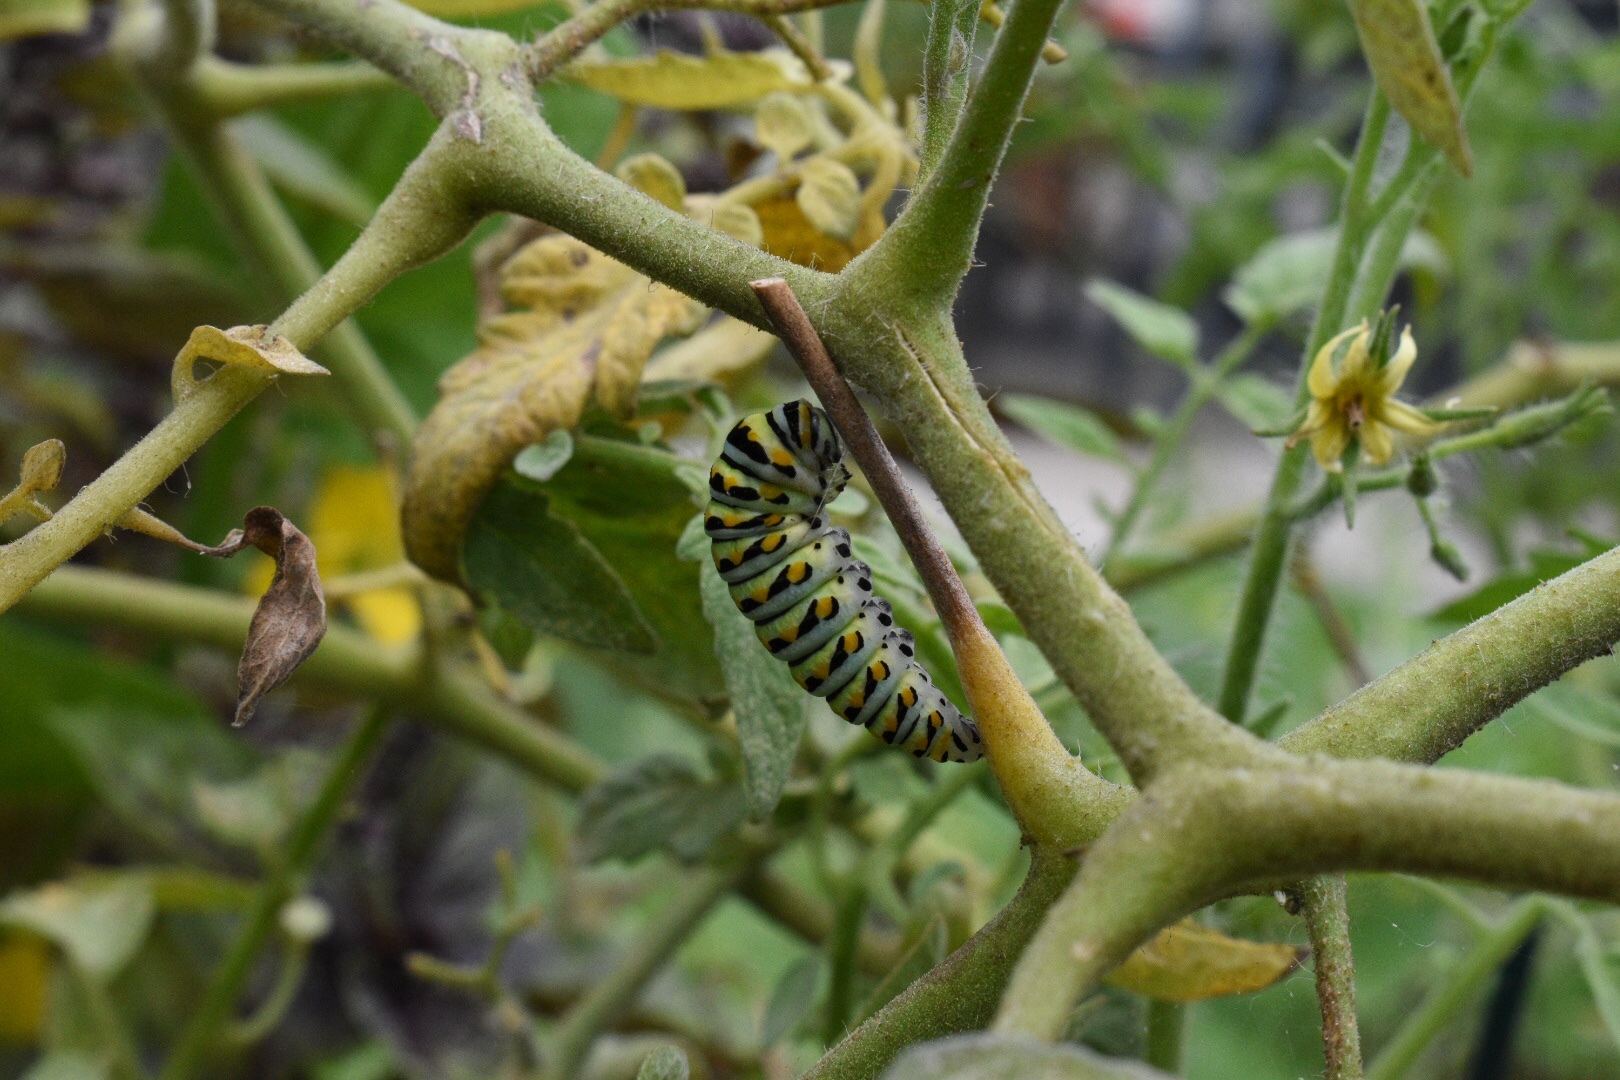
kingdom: Animalia
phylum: Arthropoda
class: Insecta
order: Lepidoptera
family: Papilionidae
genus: Papilio
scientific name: Papilio polyxenes
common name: Black swallowtail
